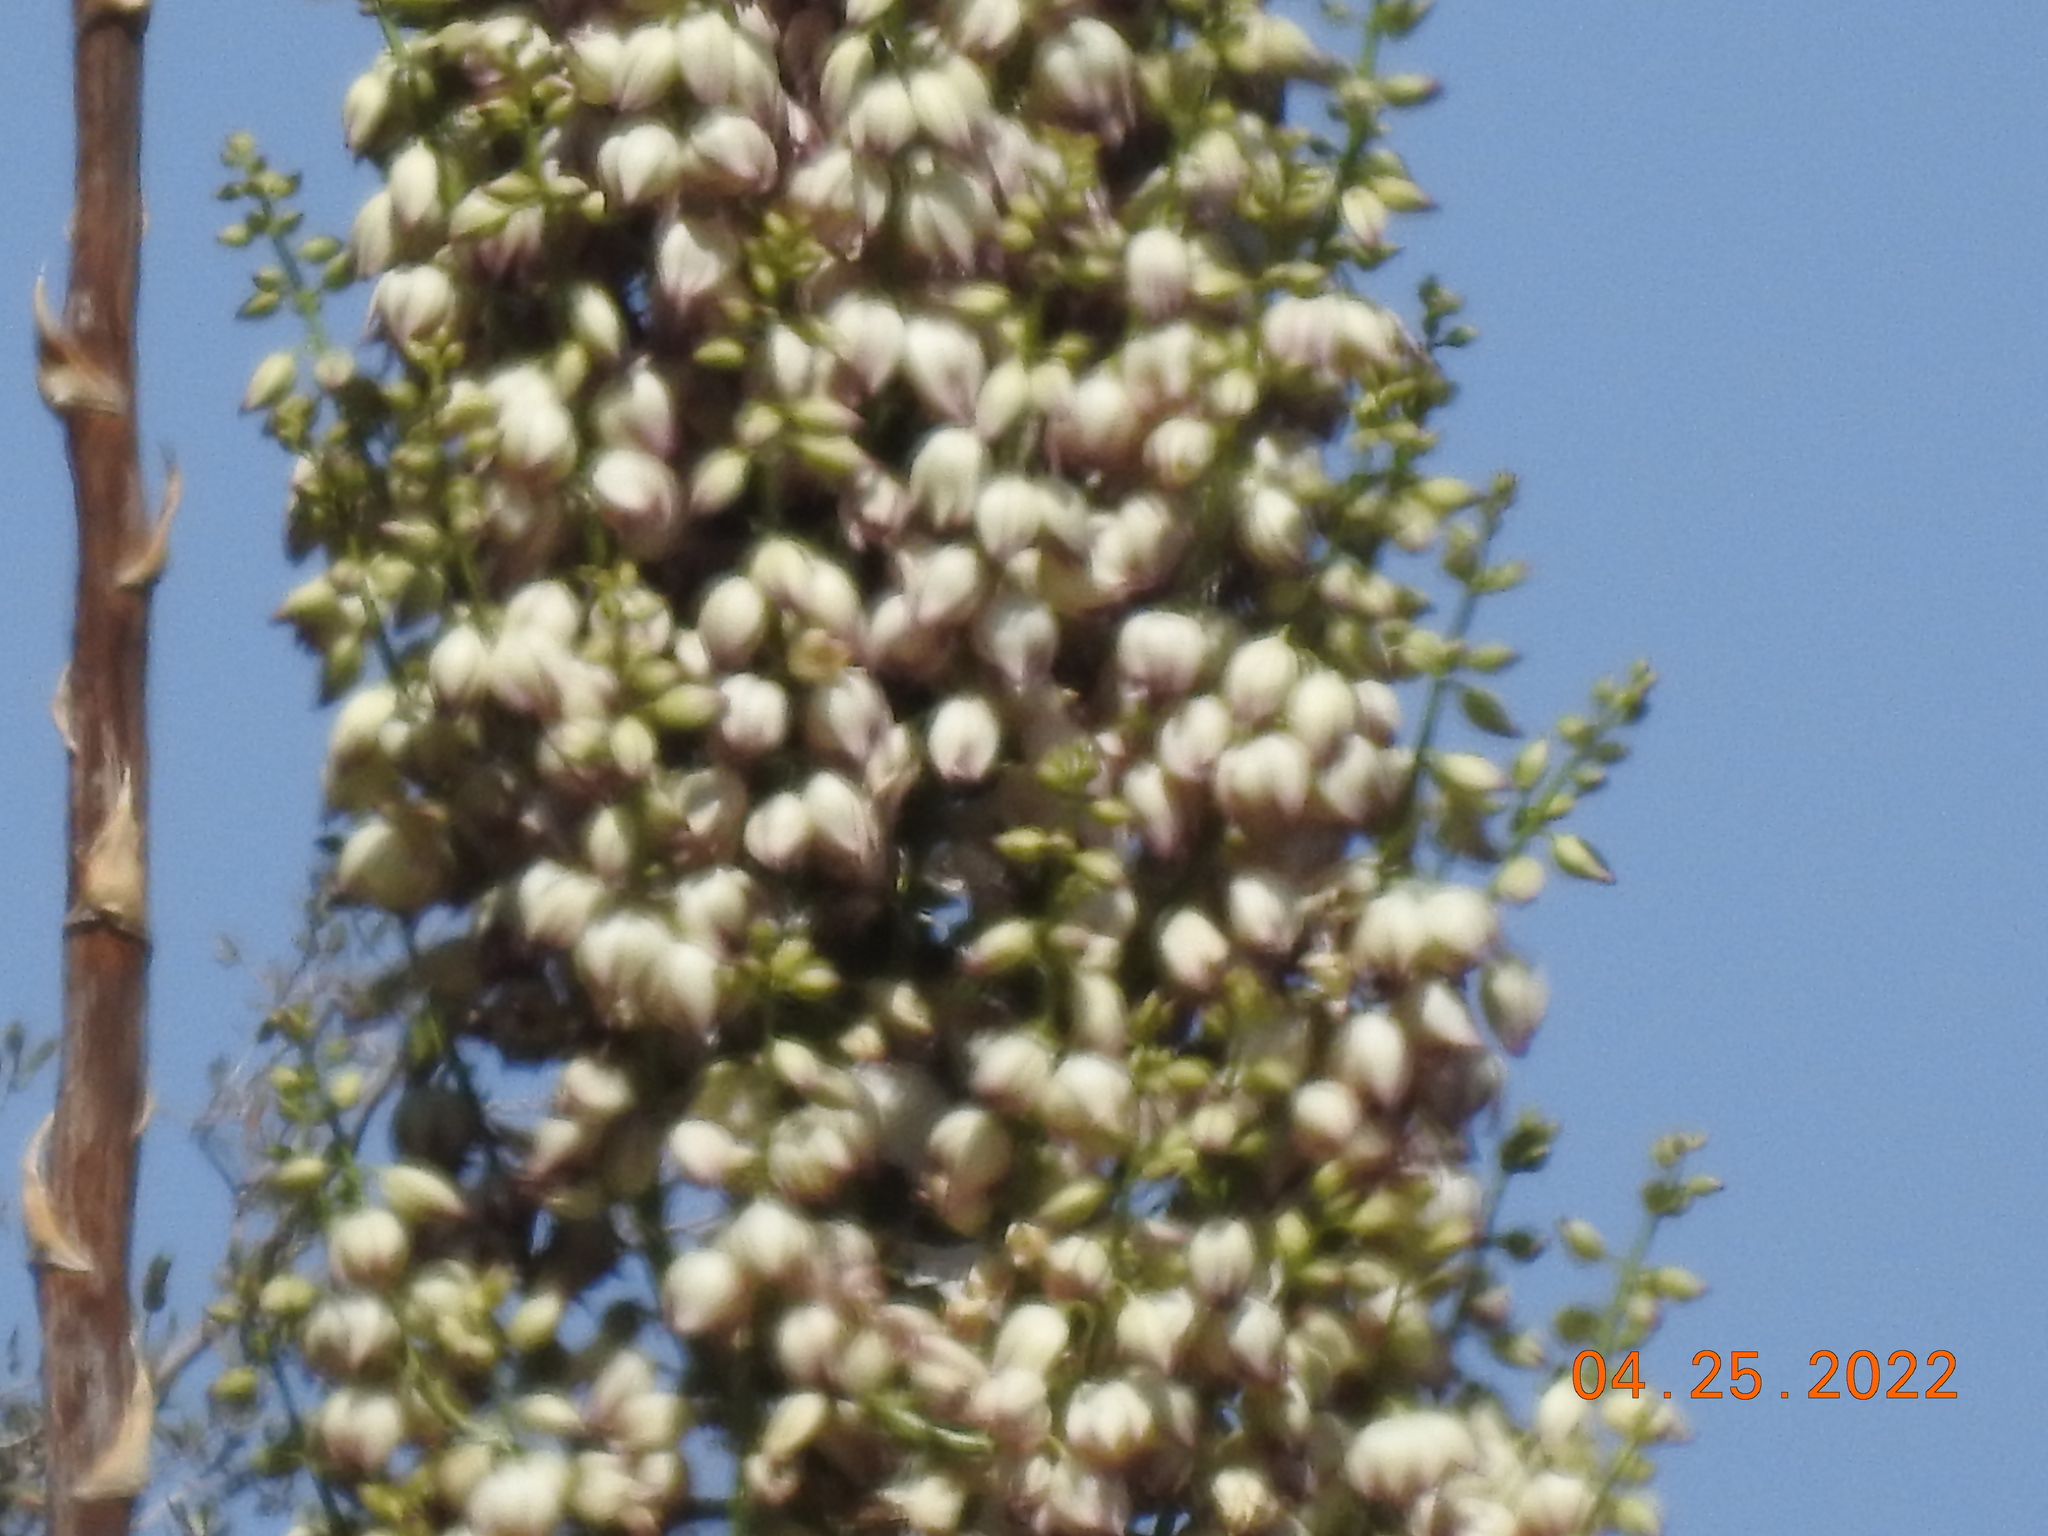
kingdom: Plantae
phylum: Tracheophyta
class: Liliopsida
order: Asparagales
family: Asparagaceae
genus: Hesperoyucca
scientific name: Hesperoyucca whipplei
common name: Our lord's-candle
